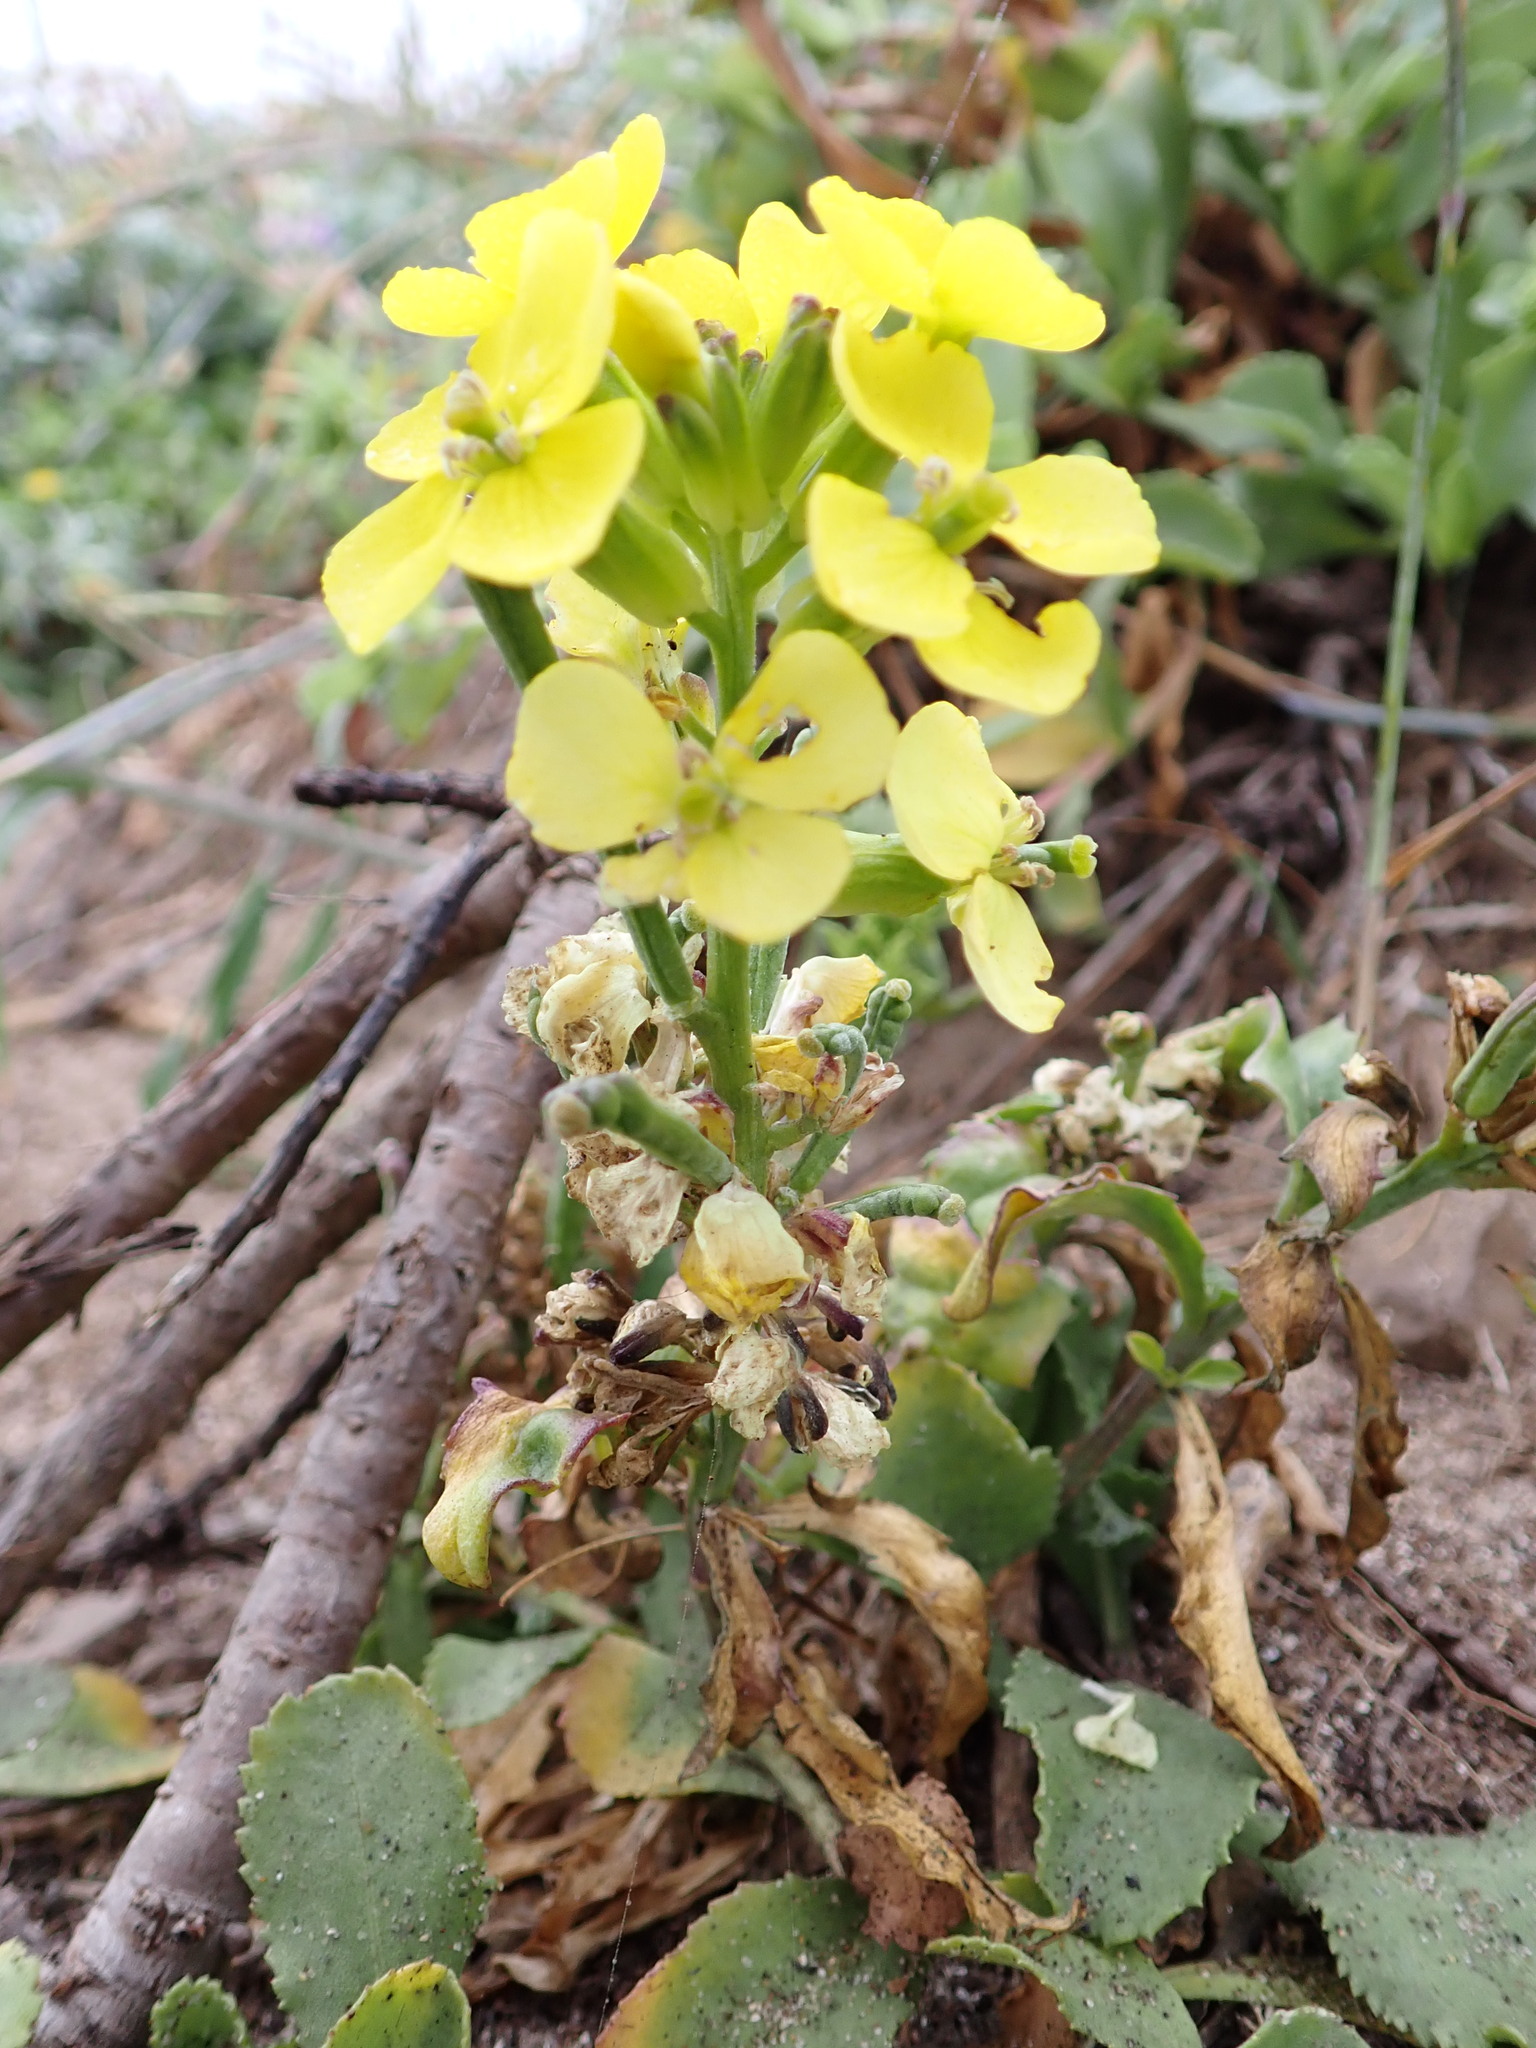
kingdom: Plantae
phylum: Tracheophyta
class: Magnoliopsida
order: Brassicales
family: Brassicaceae
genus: Erysimum
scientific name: Erysimum concinnum
